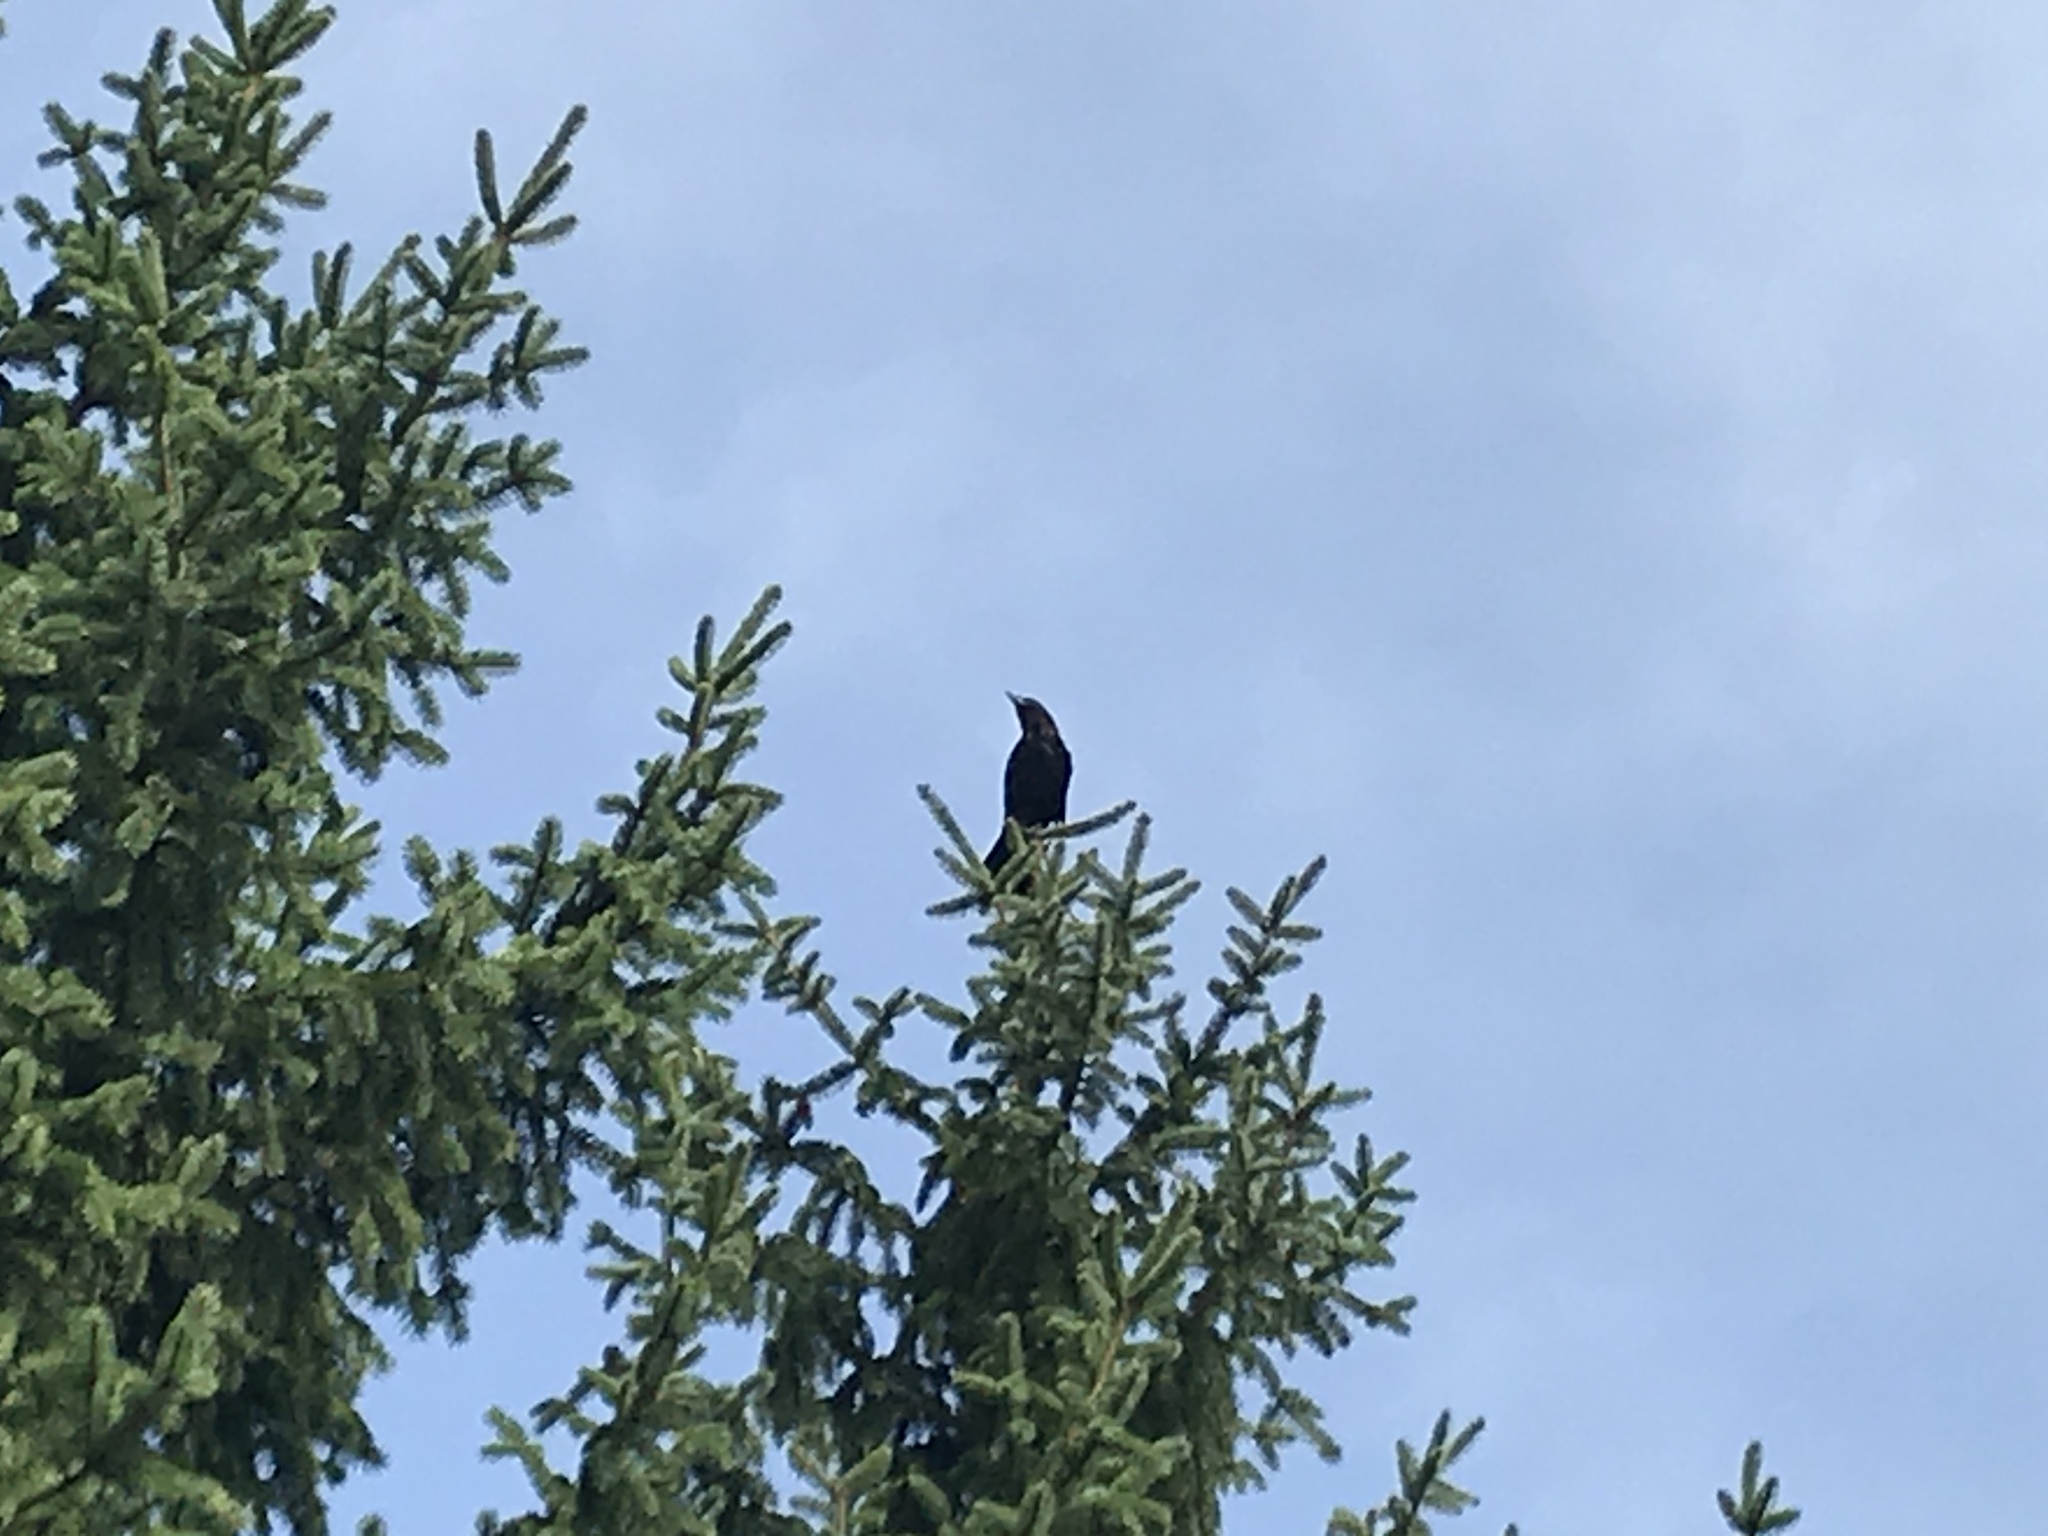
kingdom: Animalia
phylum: Chordata
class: Aves
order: Passeriformes
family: Corvidae
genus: Corvus
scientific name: Corvus brachyrhynchos
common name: American crow
